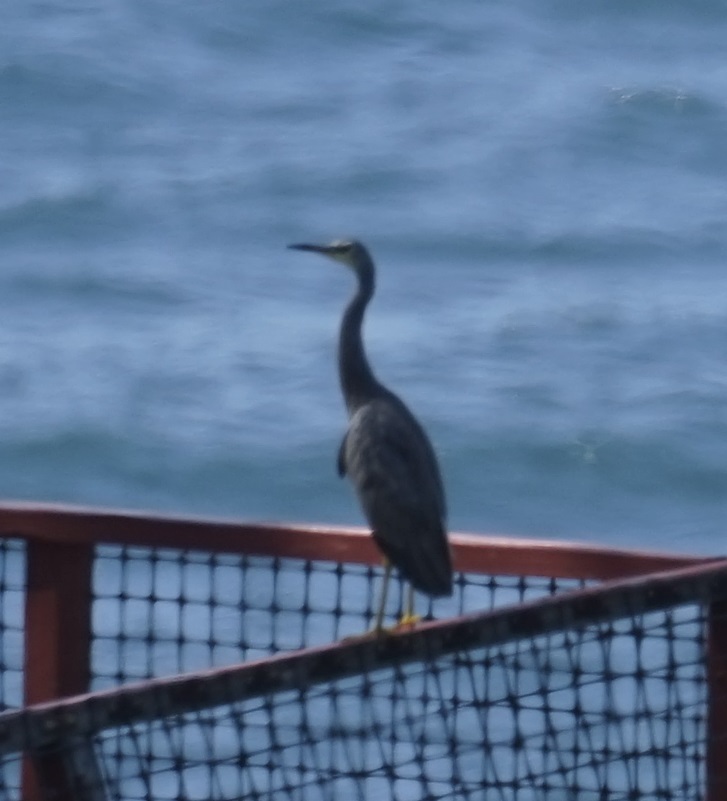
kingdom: Animalia
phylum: Chordata
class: Aves
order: Pelecaniformes
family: Ardeidae
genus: Egretta
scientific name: Egretta novaehollandiae
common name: White-faced heron
